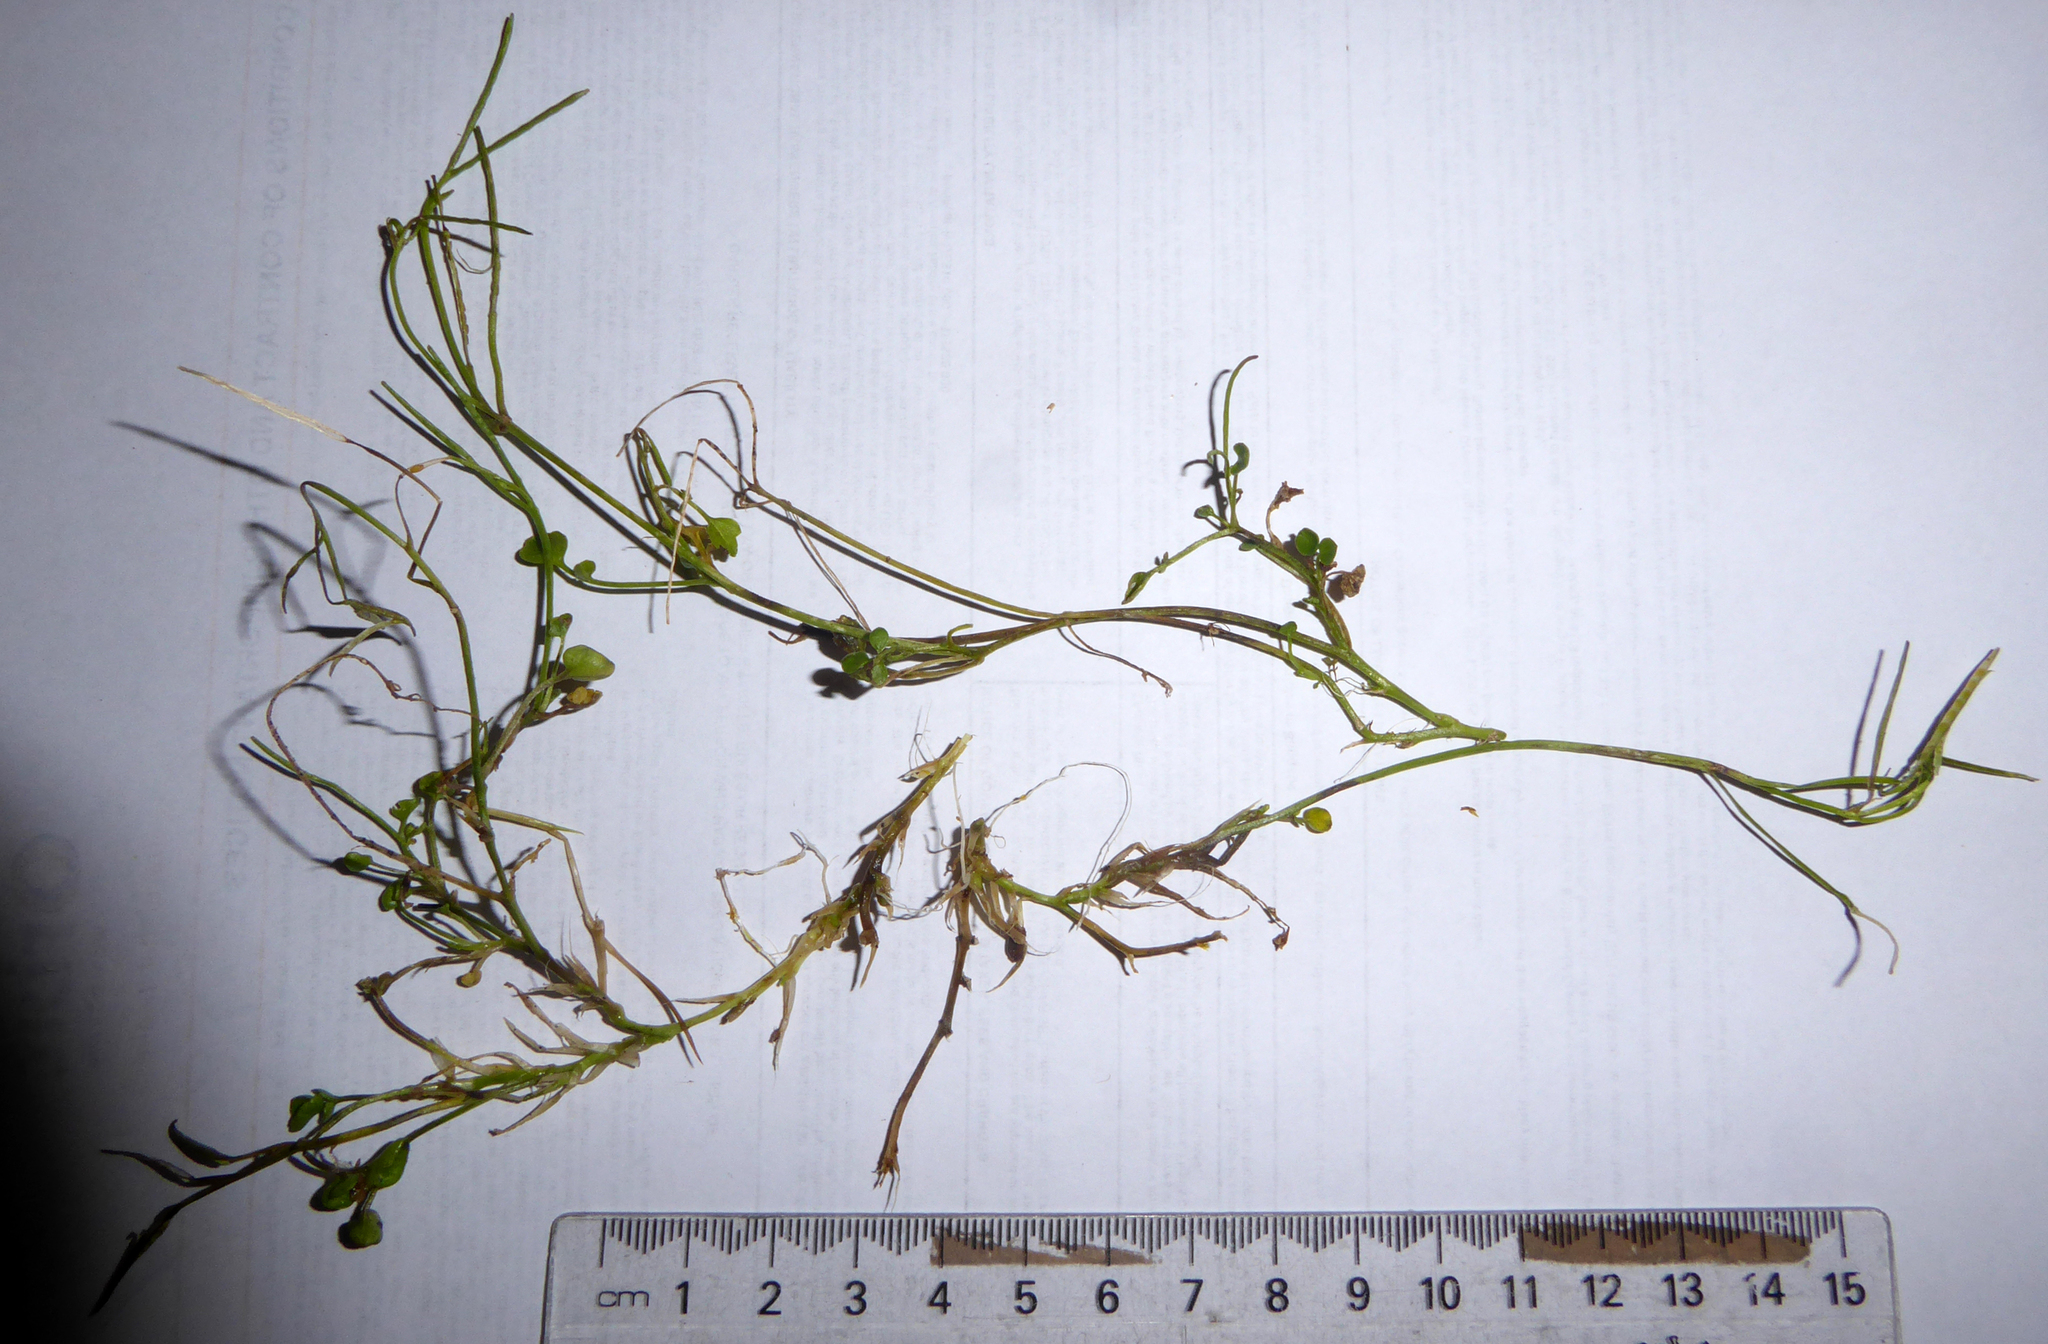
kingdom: Plantae
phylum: Tracheophyta
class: Magnoliopsida
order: Brassicales
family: Brassicaceae
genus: Cardamine
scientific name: Cardamine panatohea
